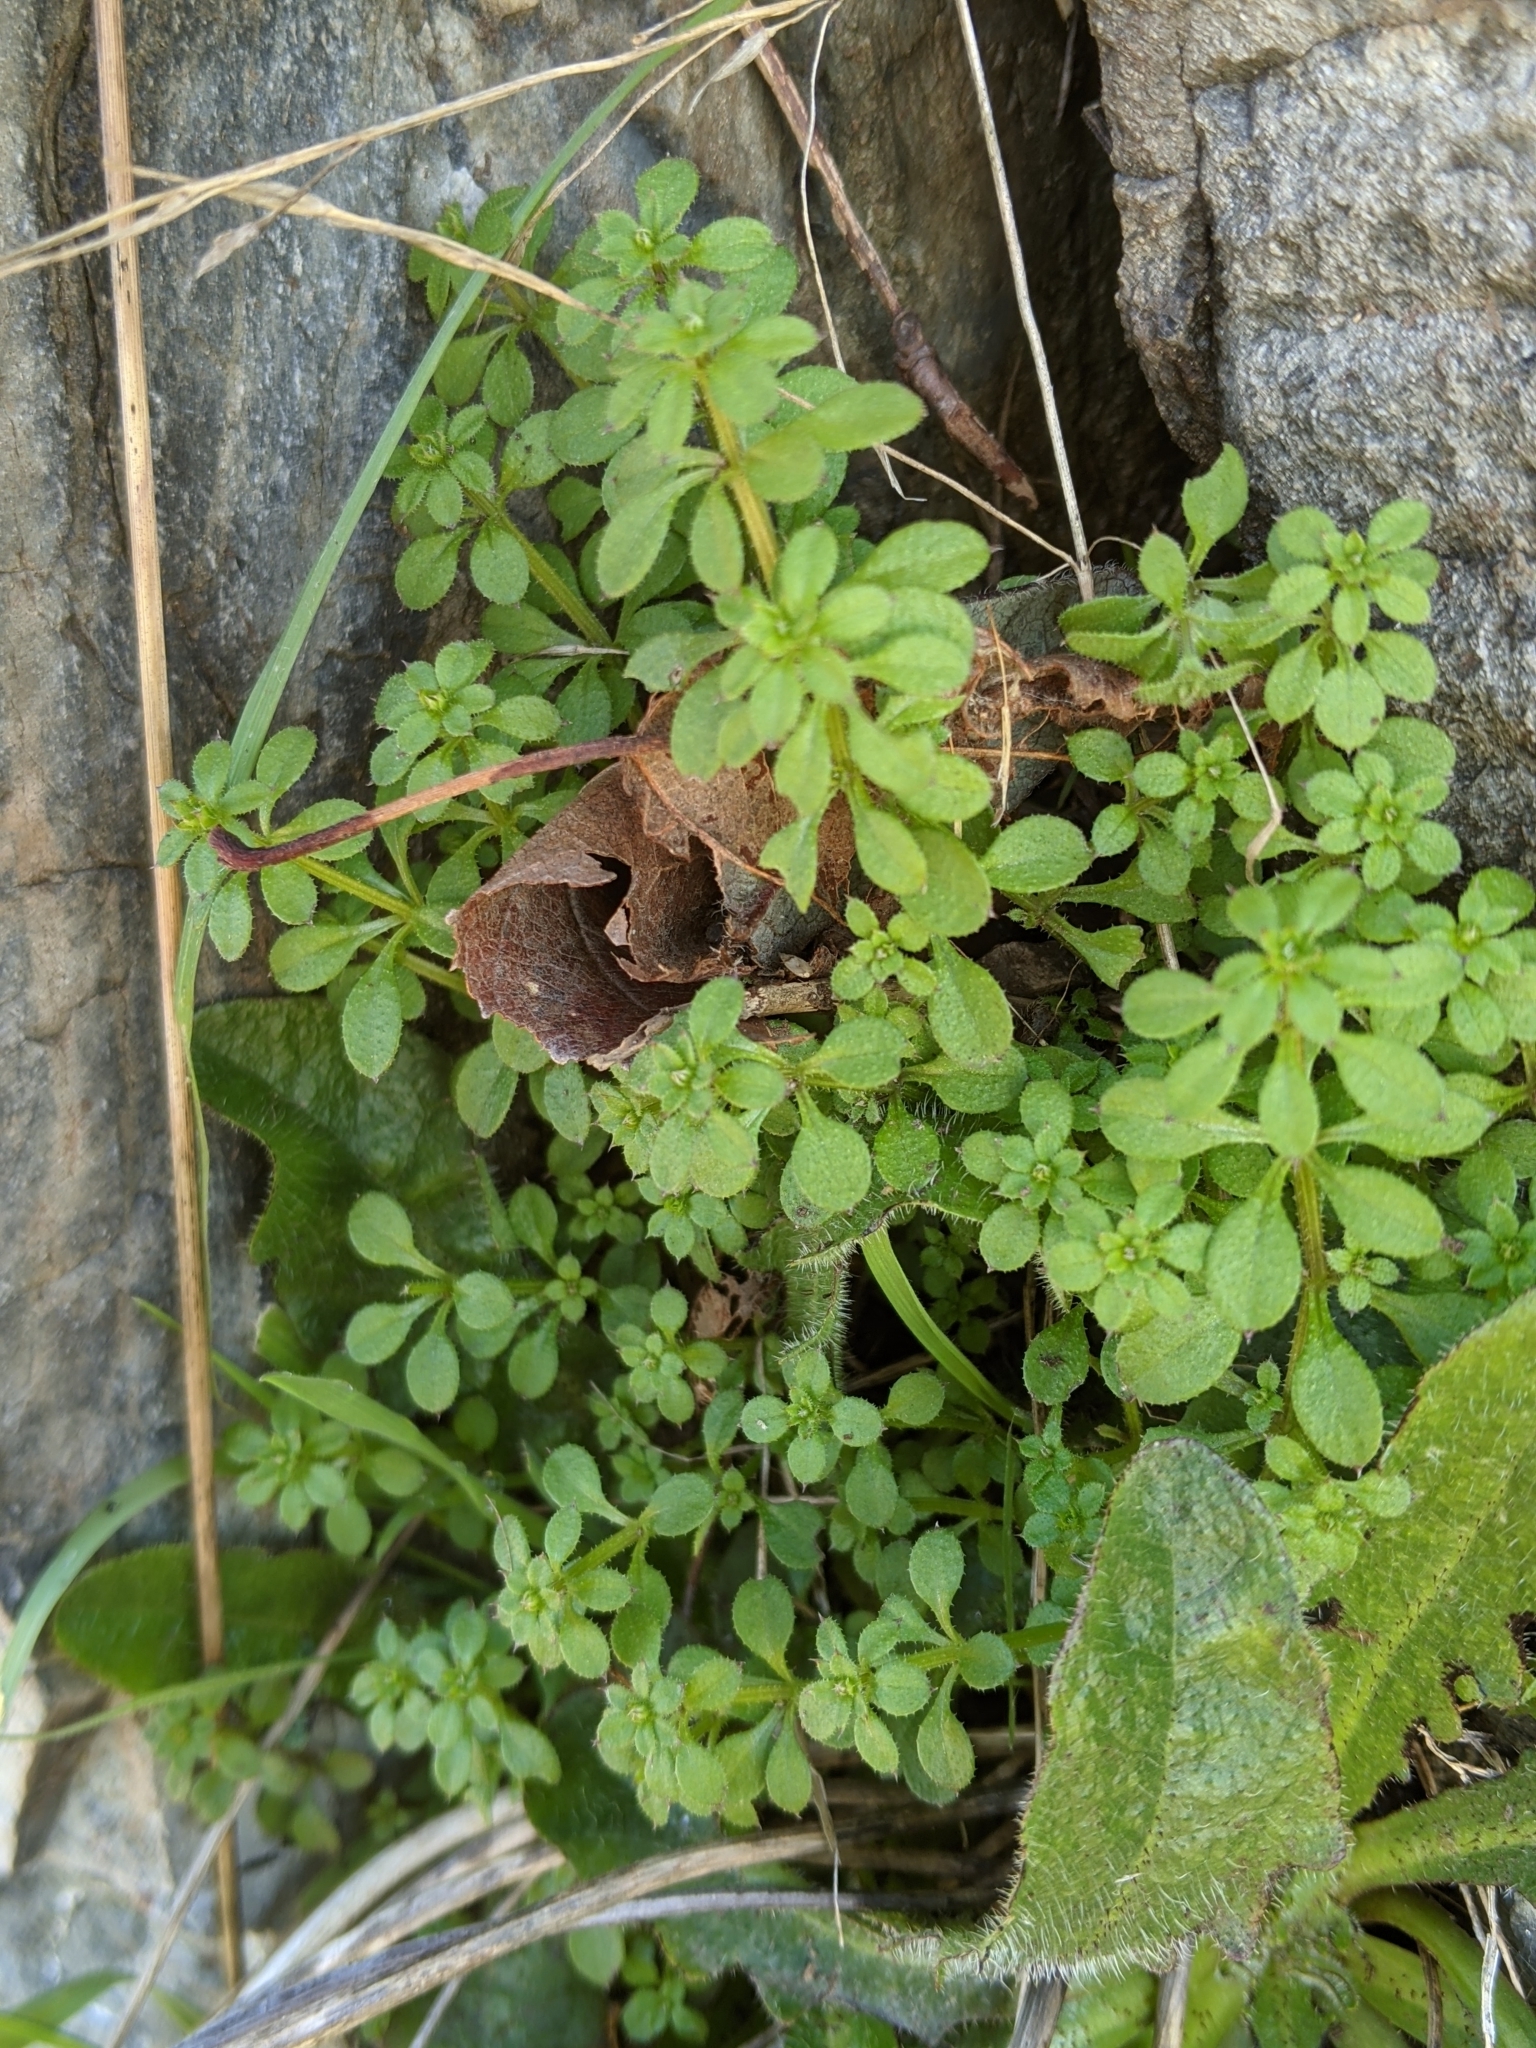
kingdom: Plantae
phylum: Tracheophyta
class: Magnoliopsida
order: Gentianales
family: Rubiaceae
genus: Galium
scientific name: Galium aparine
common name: Cleavers
